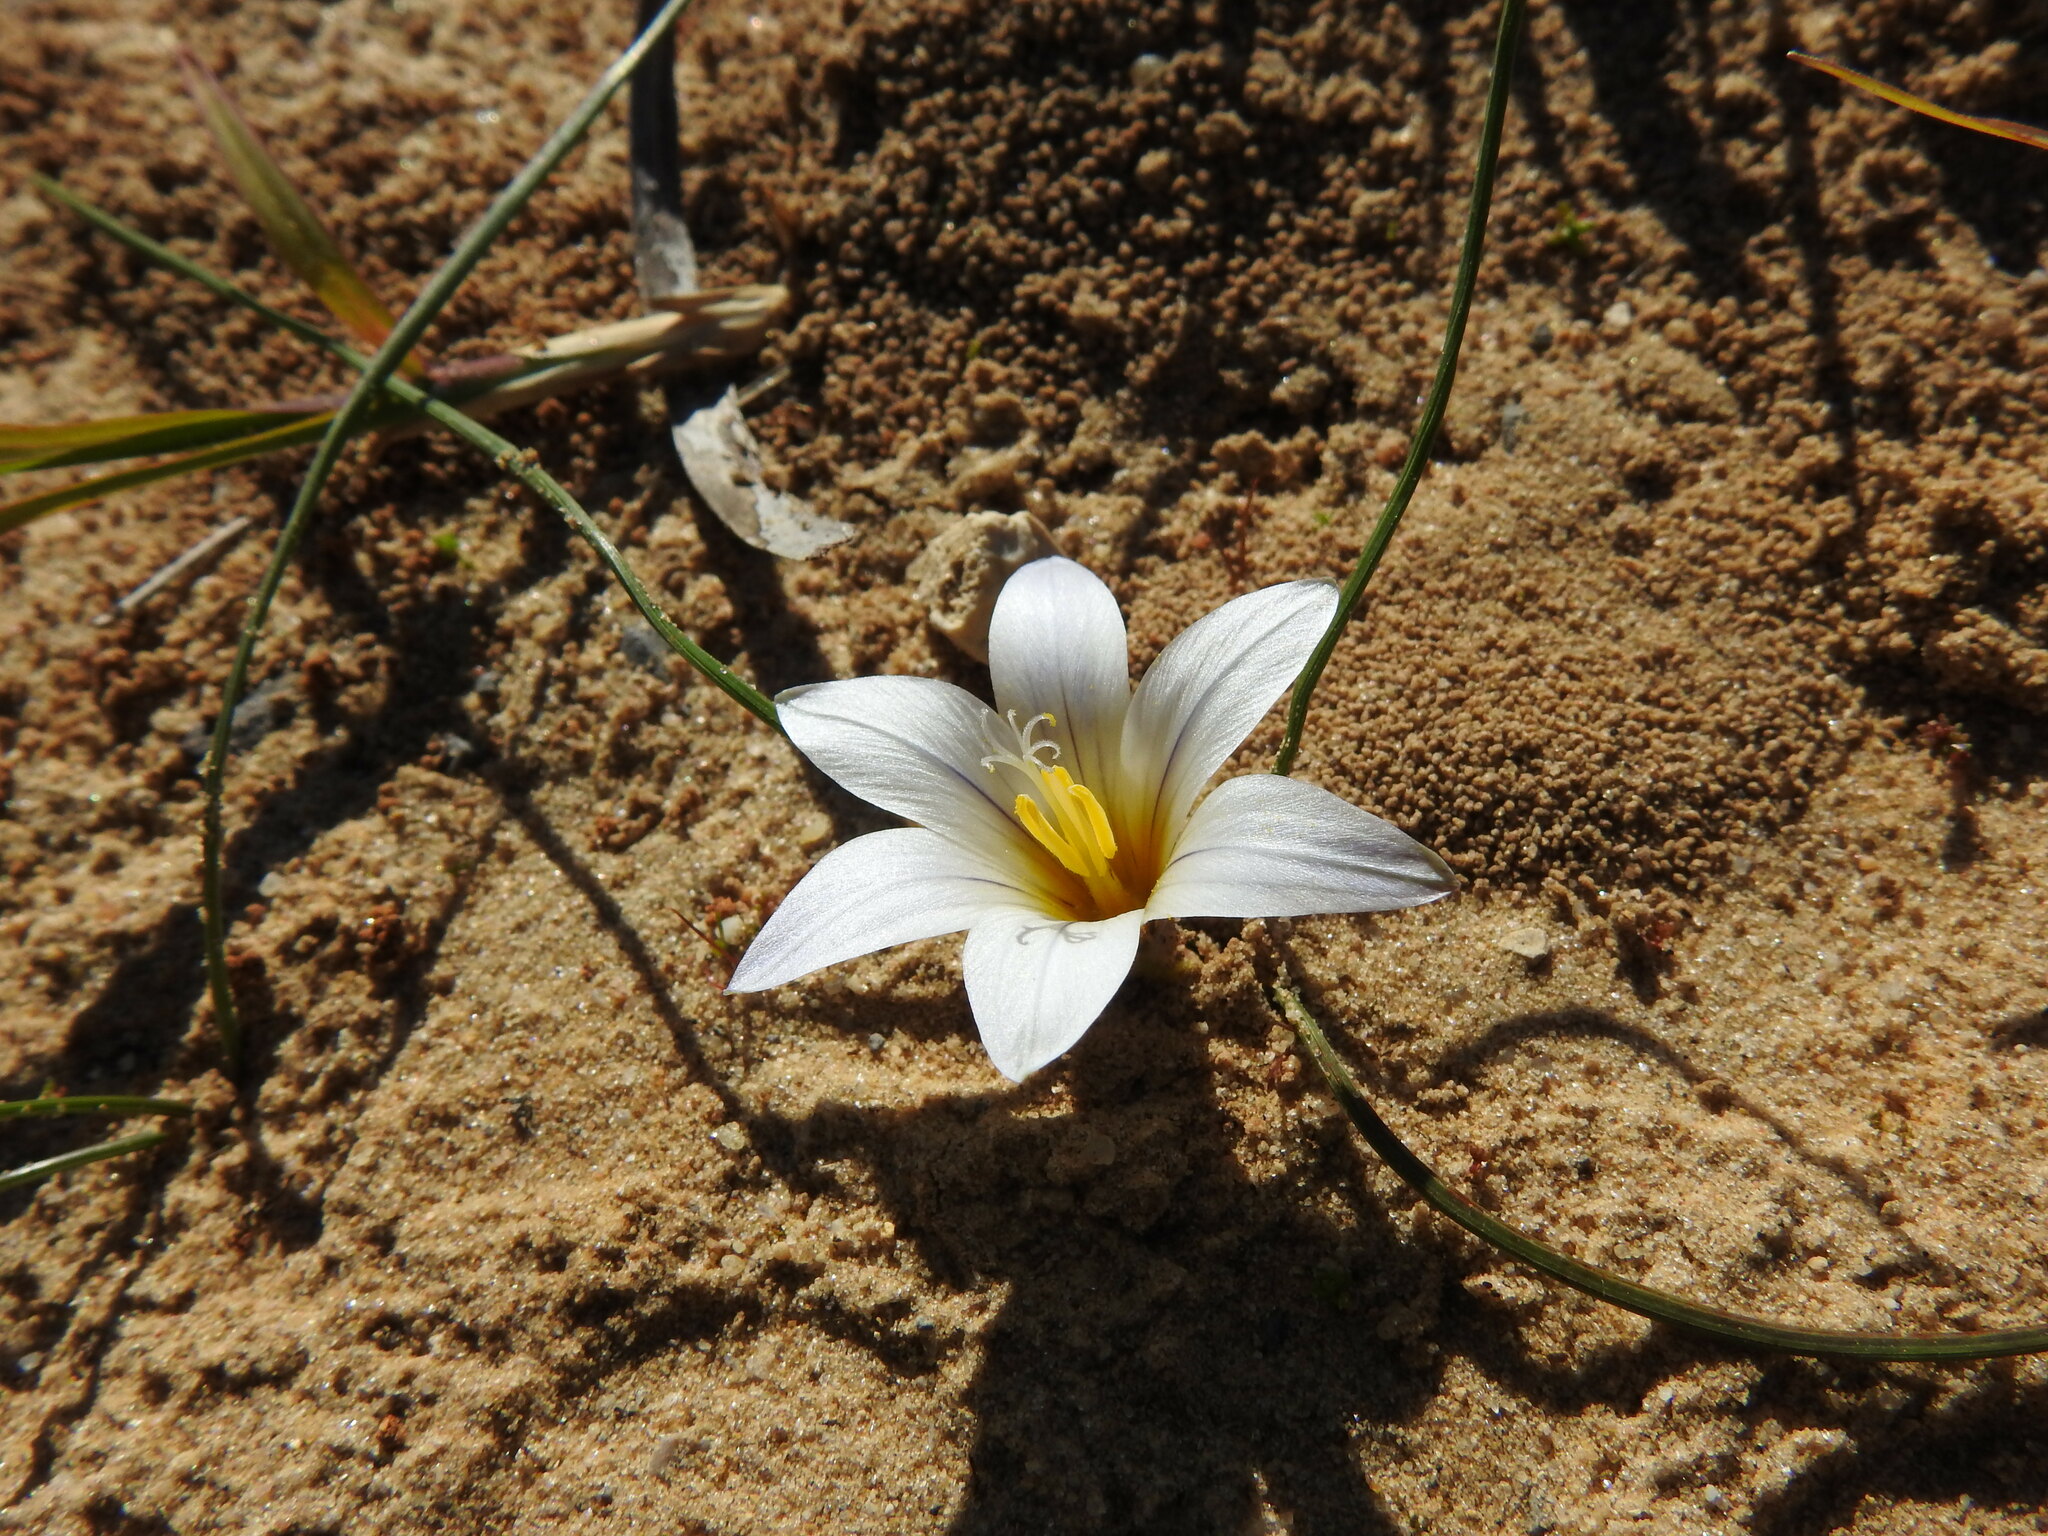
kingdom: Plantae
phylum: Tracheophyta
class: Liliopsida
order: Asparagales
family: Iridaceae
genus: Romulea
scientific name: Romulea bulbocodium
